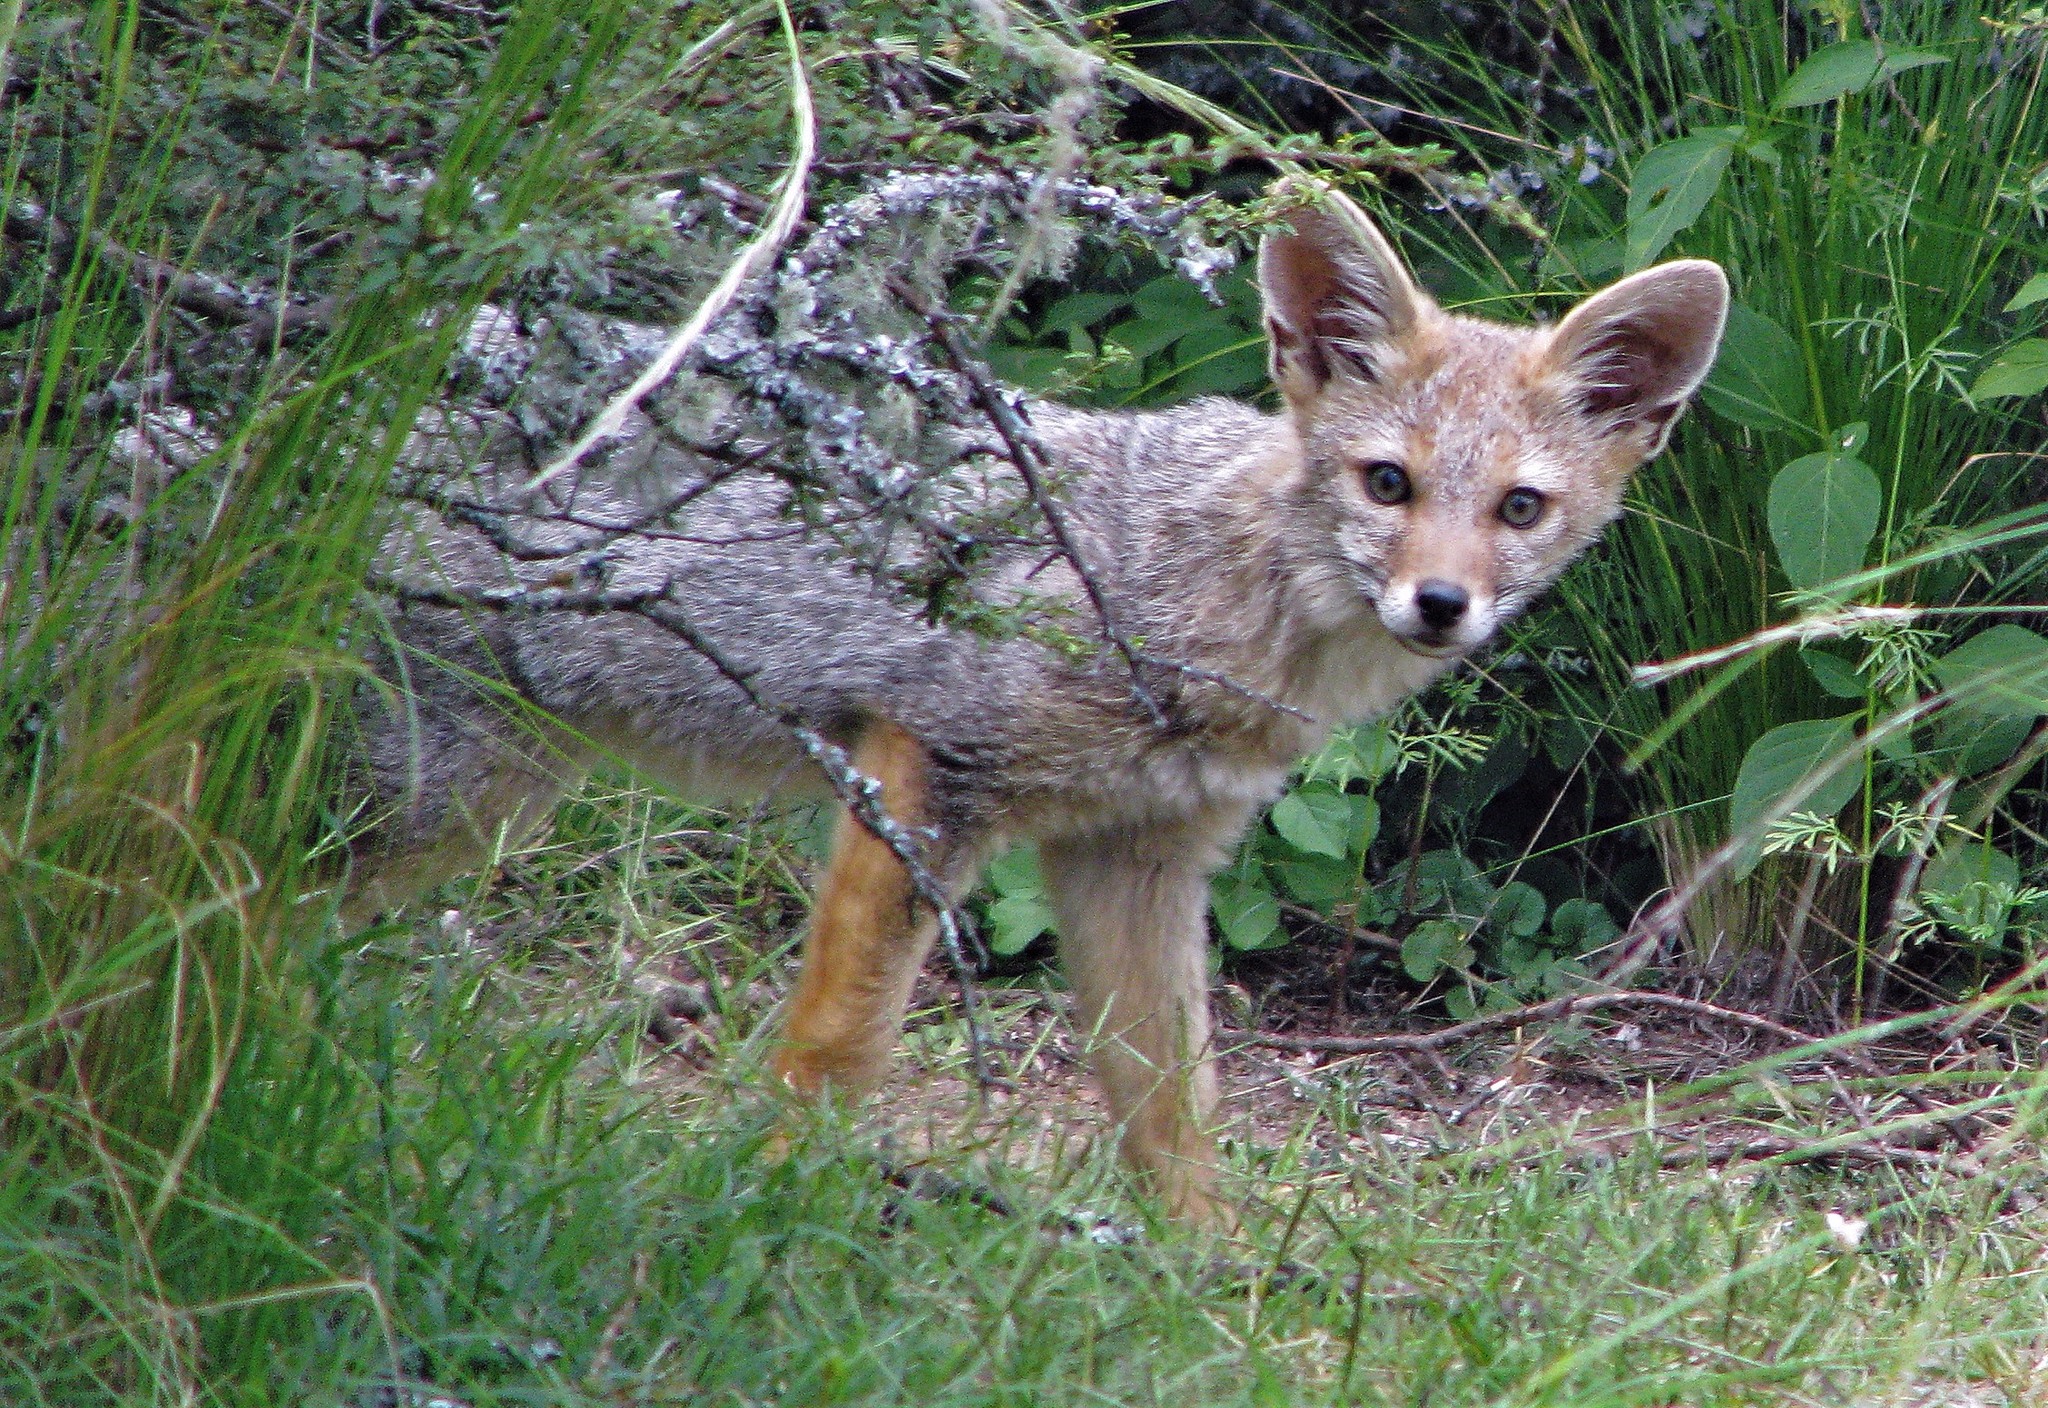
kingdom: Animalia
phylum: Chordata
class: Mammalia
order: Carnivora
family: Canidae
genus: Lycalopex
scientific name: Lycalopex gymnocercus
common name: Pampas fox
